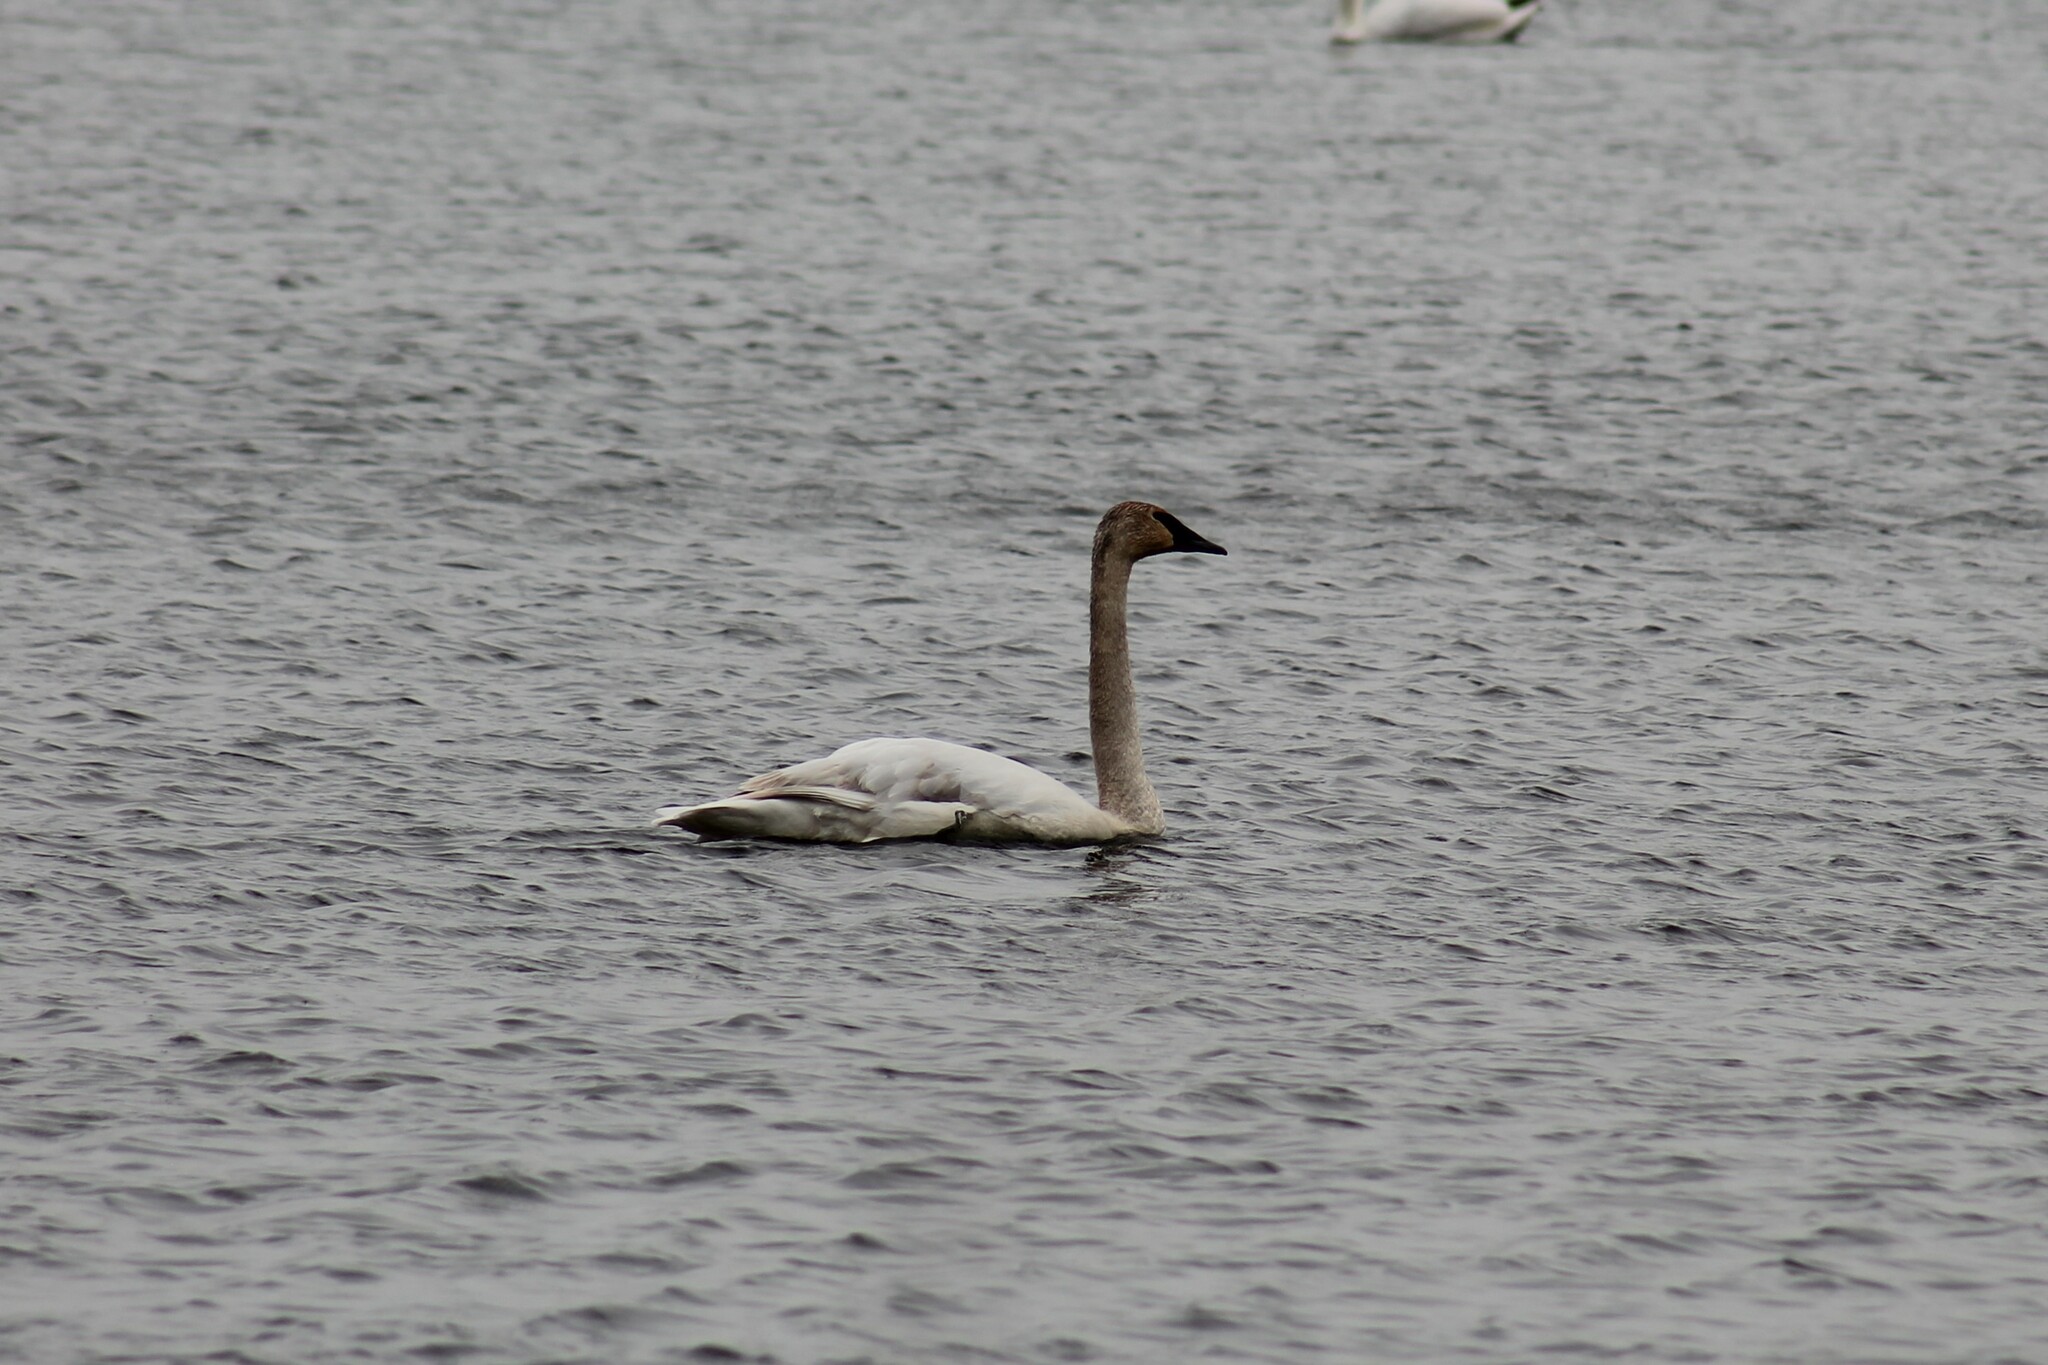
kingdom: Animalia
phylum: Chordata
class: Aves
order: Anseriformes
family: Anatidae
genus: Cygnus
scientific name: Cygnus buccinator
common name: Trumpeter swan
